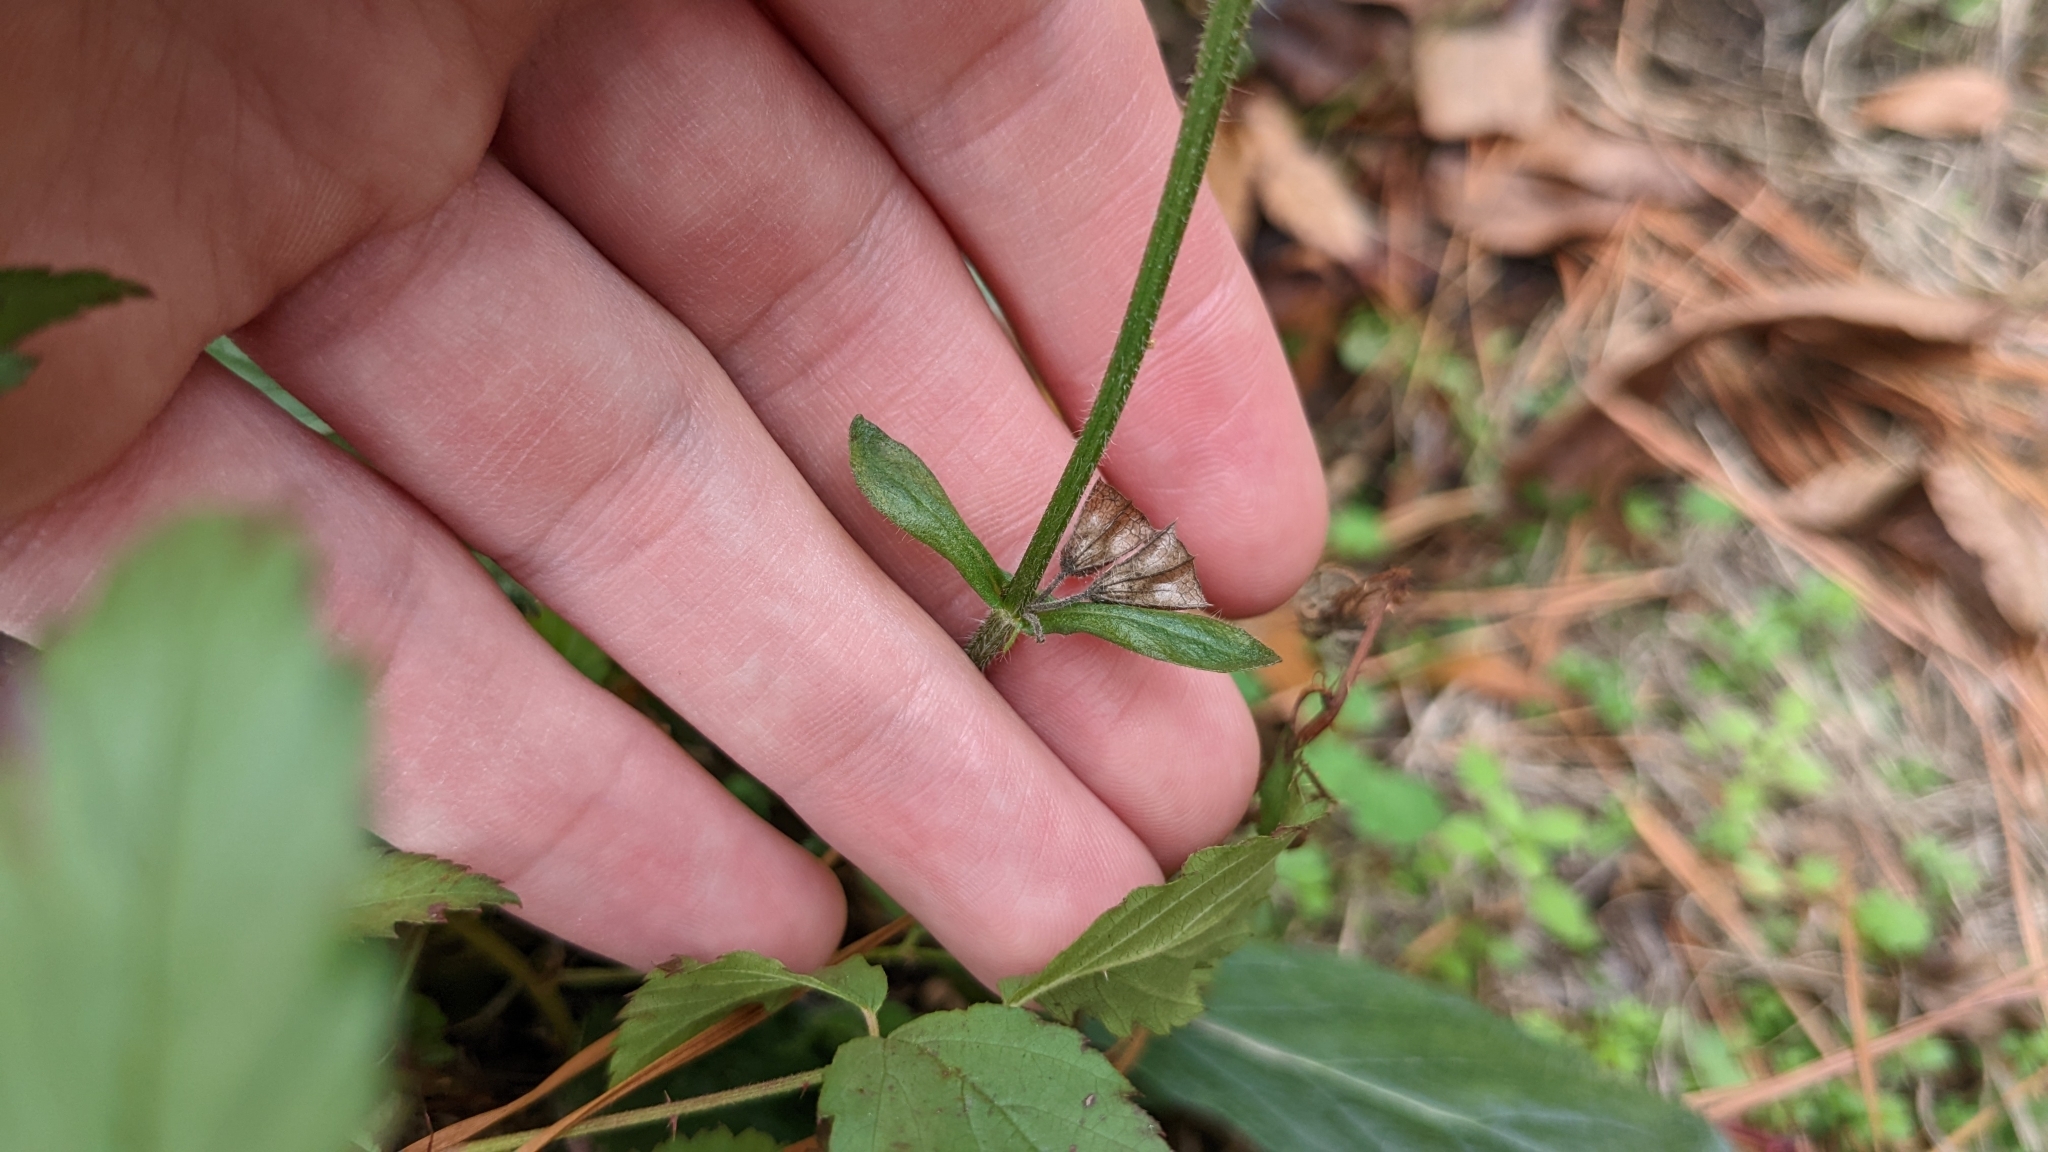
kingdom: Plantae
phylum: Tracheophyta
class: Magnoliopsida
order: Lamiales
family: Lamiaceae
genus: Salvia
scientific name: Salvia lyrata
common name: Cancerweed
